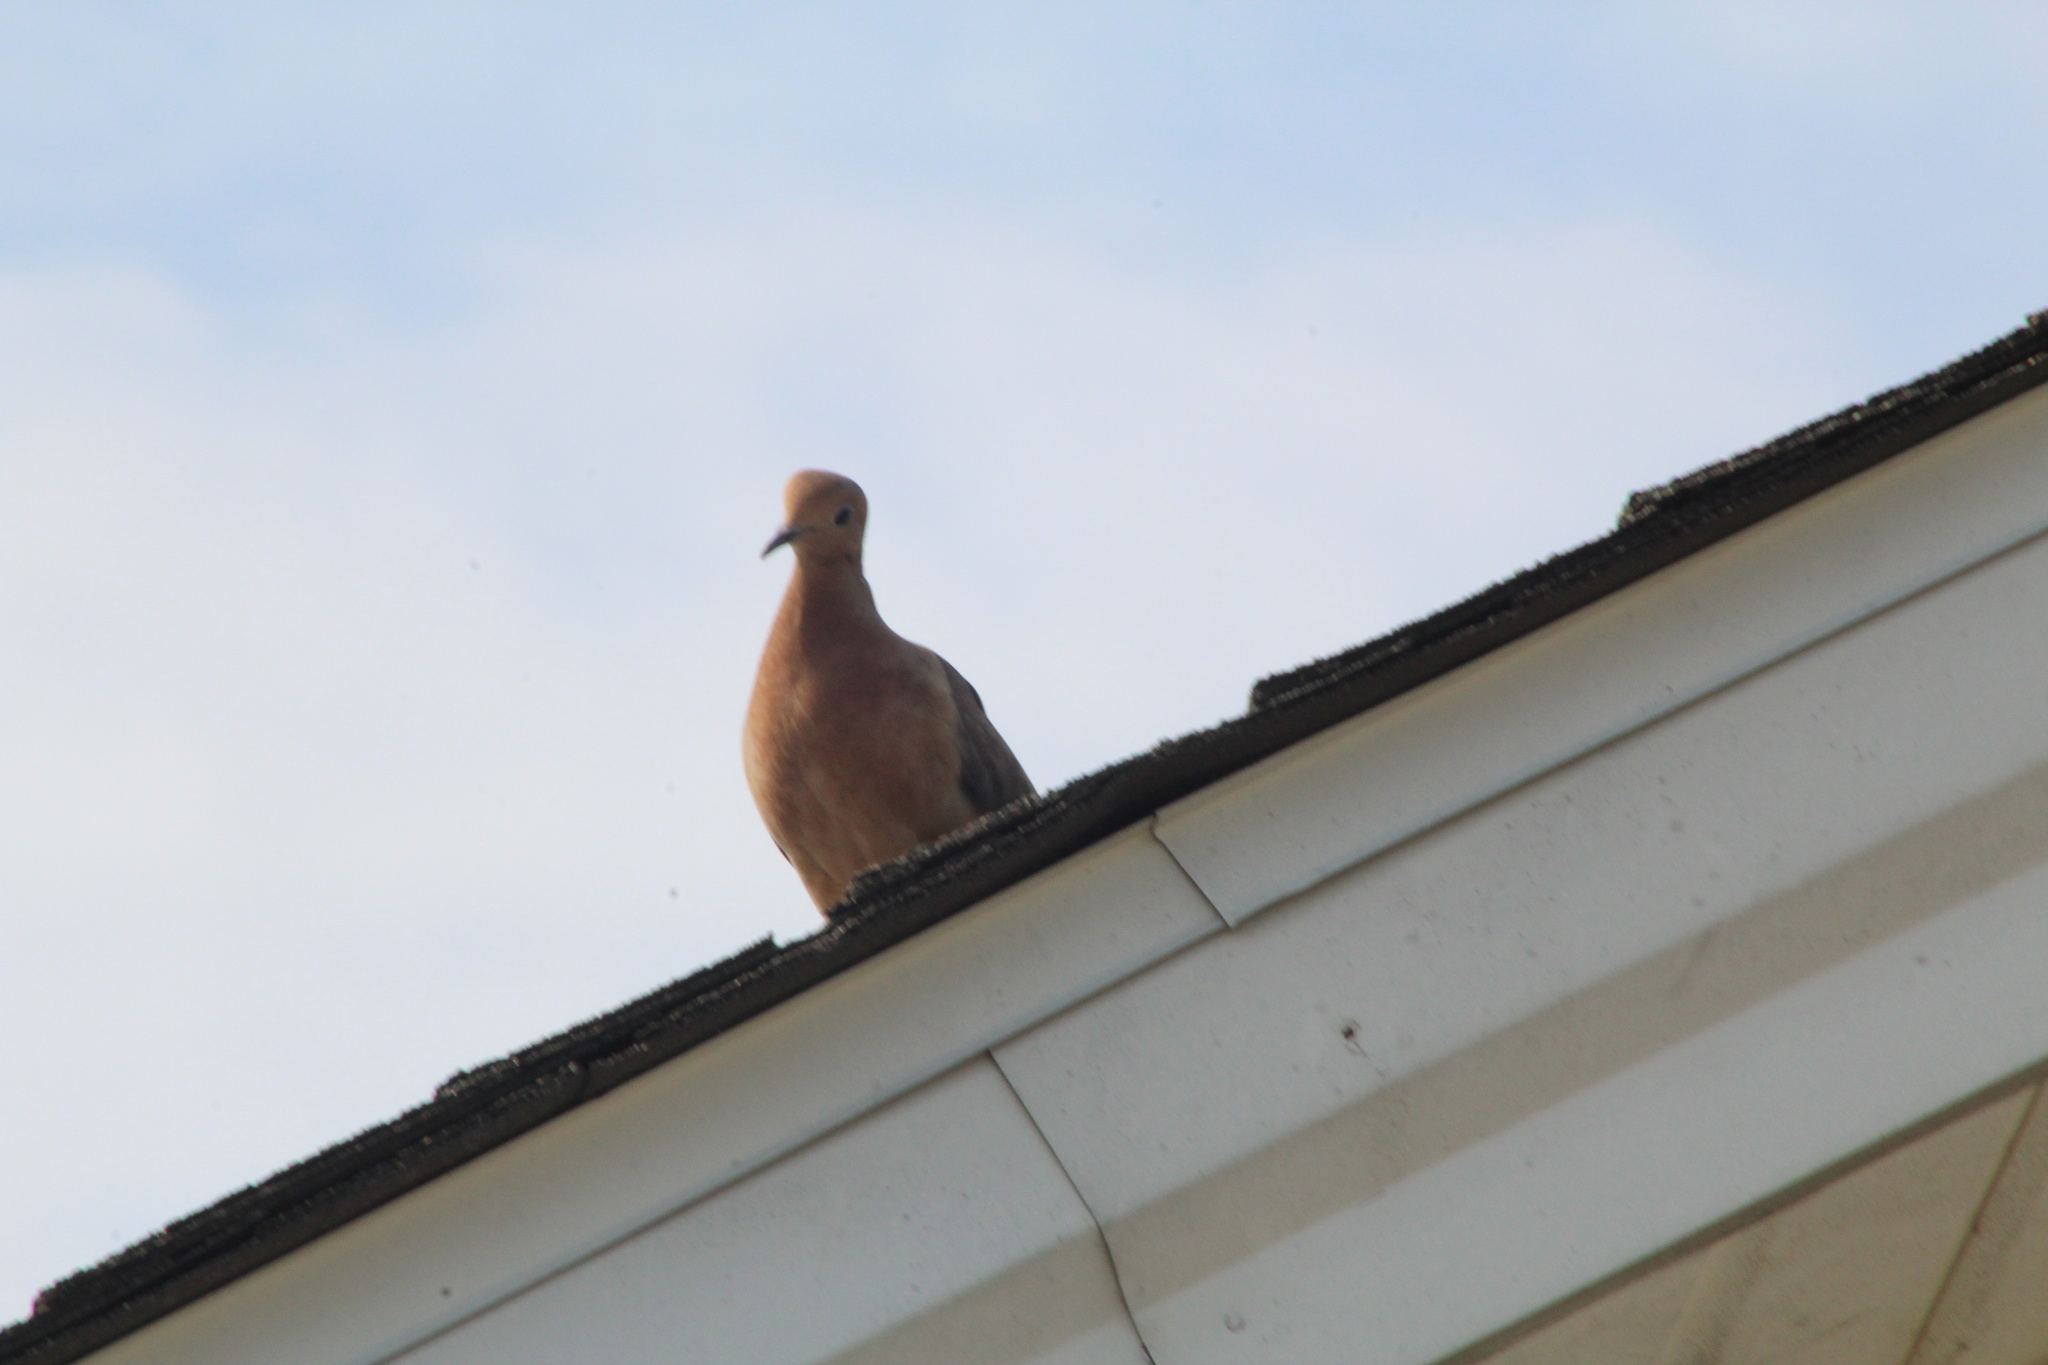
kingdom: Animalia
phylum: Chordata
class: Aves
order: Columbiformes
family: Columbidae
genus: Zenaida
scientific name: Zenaida macroura
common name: Mourning dove
